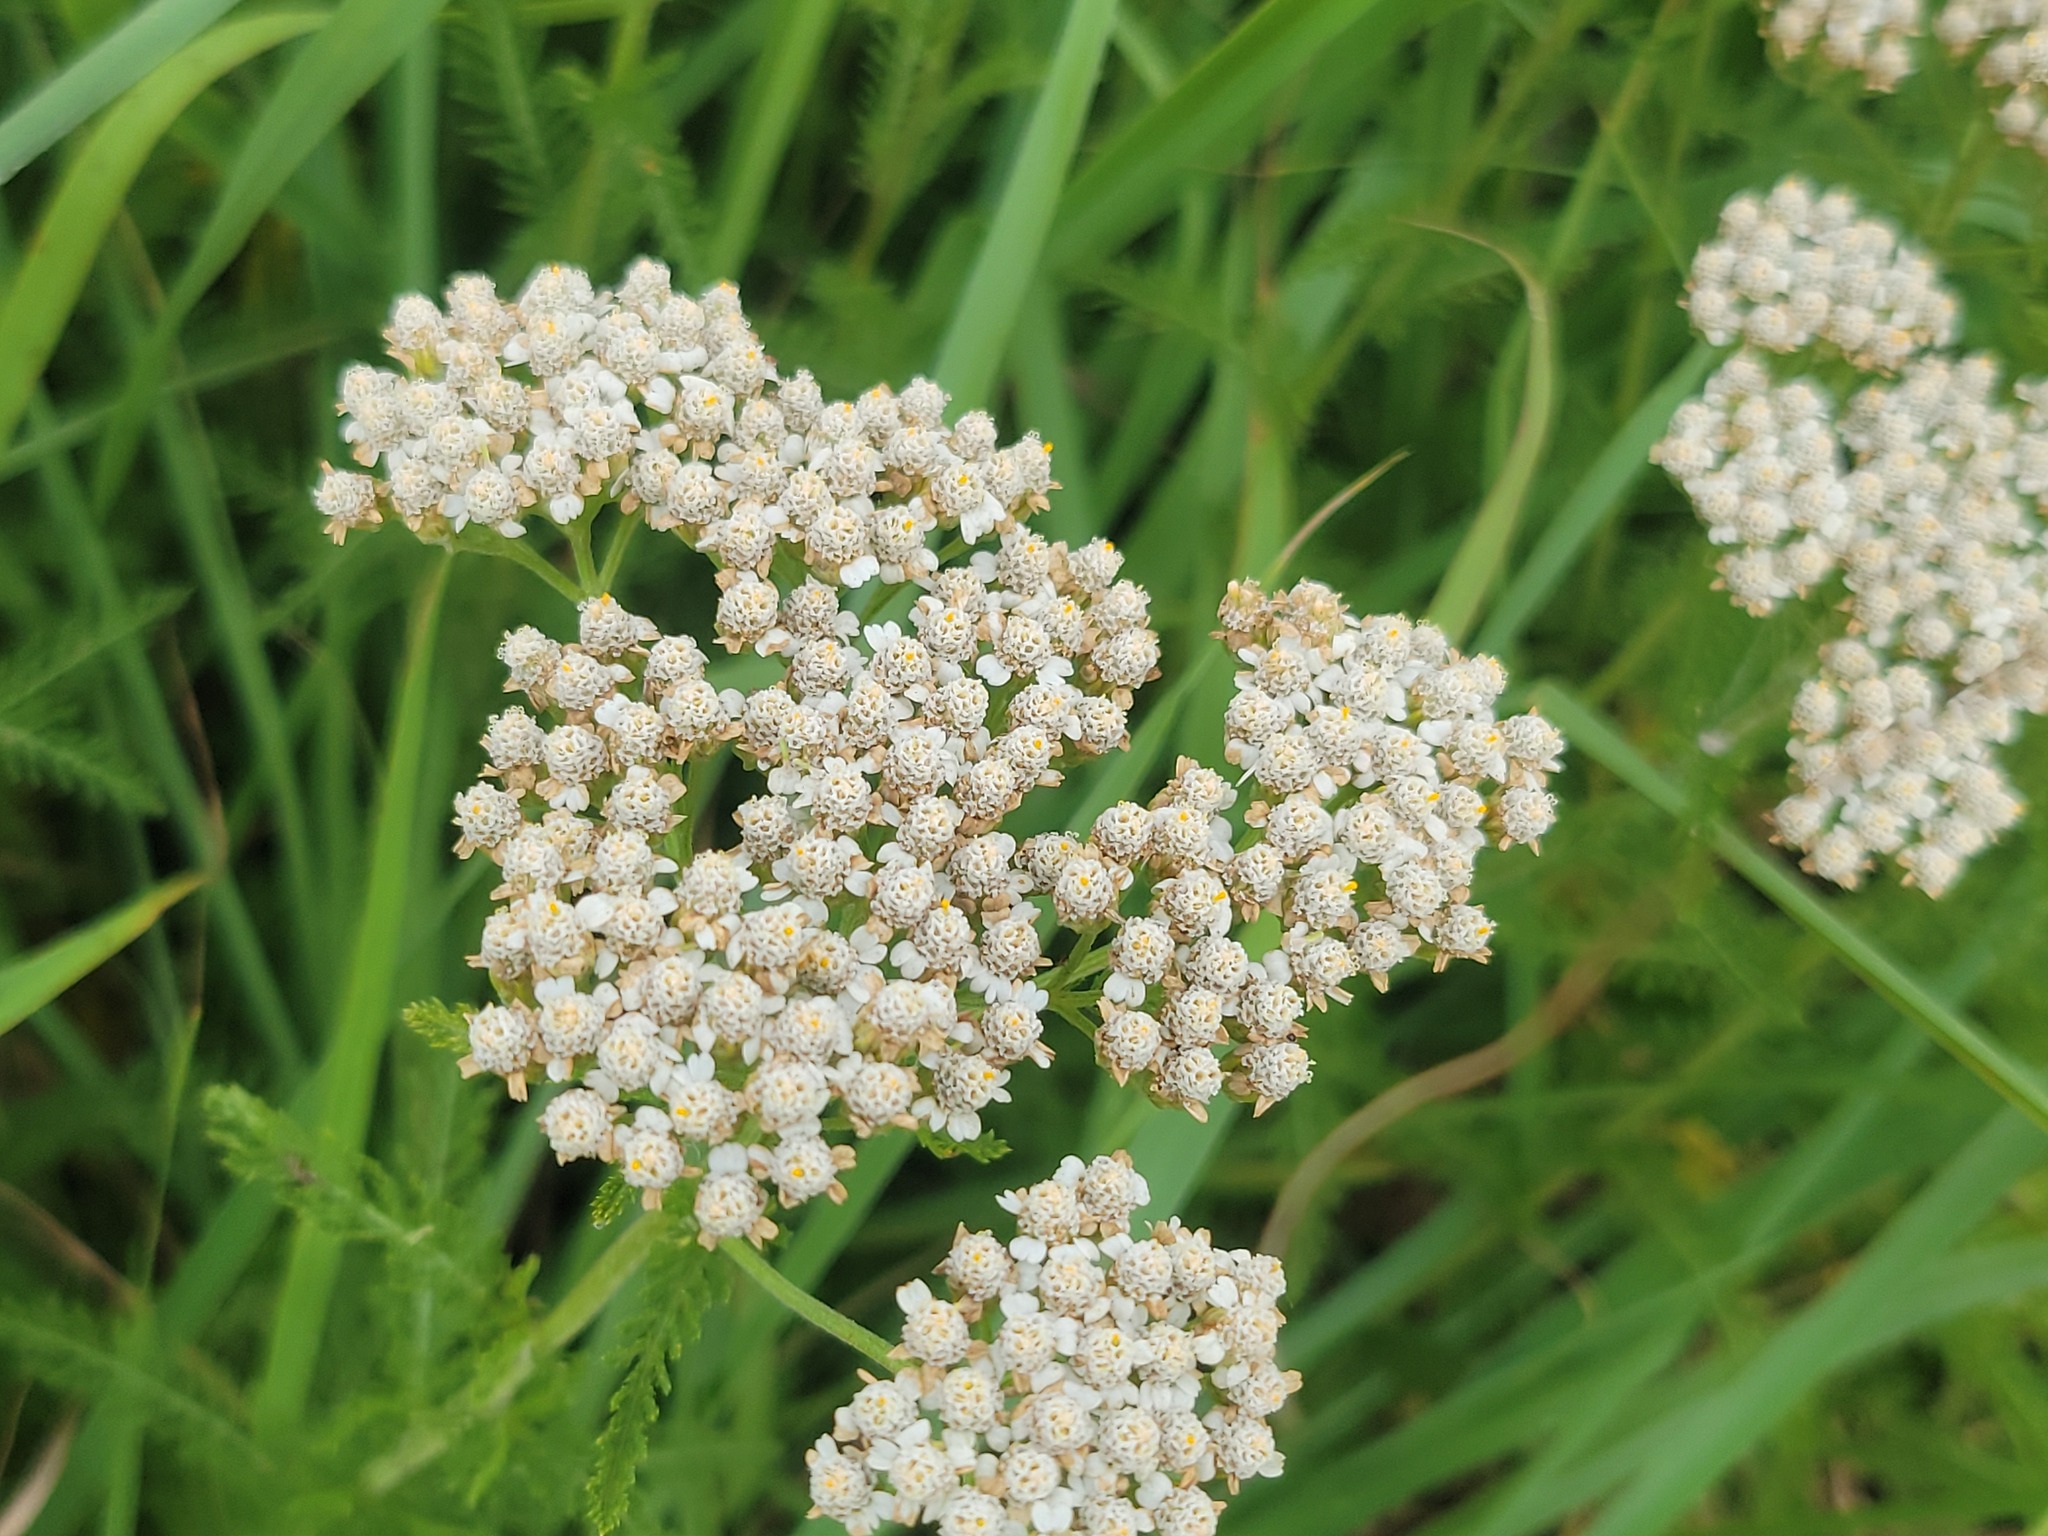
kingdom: Plantae
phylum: Tracheophyta
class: Magnoliopsida
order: Asterales
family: Asteraceae
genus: Achillea
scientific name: Achillea millefolium
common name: Yarrow
